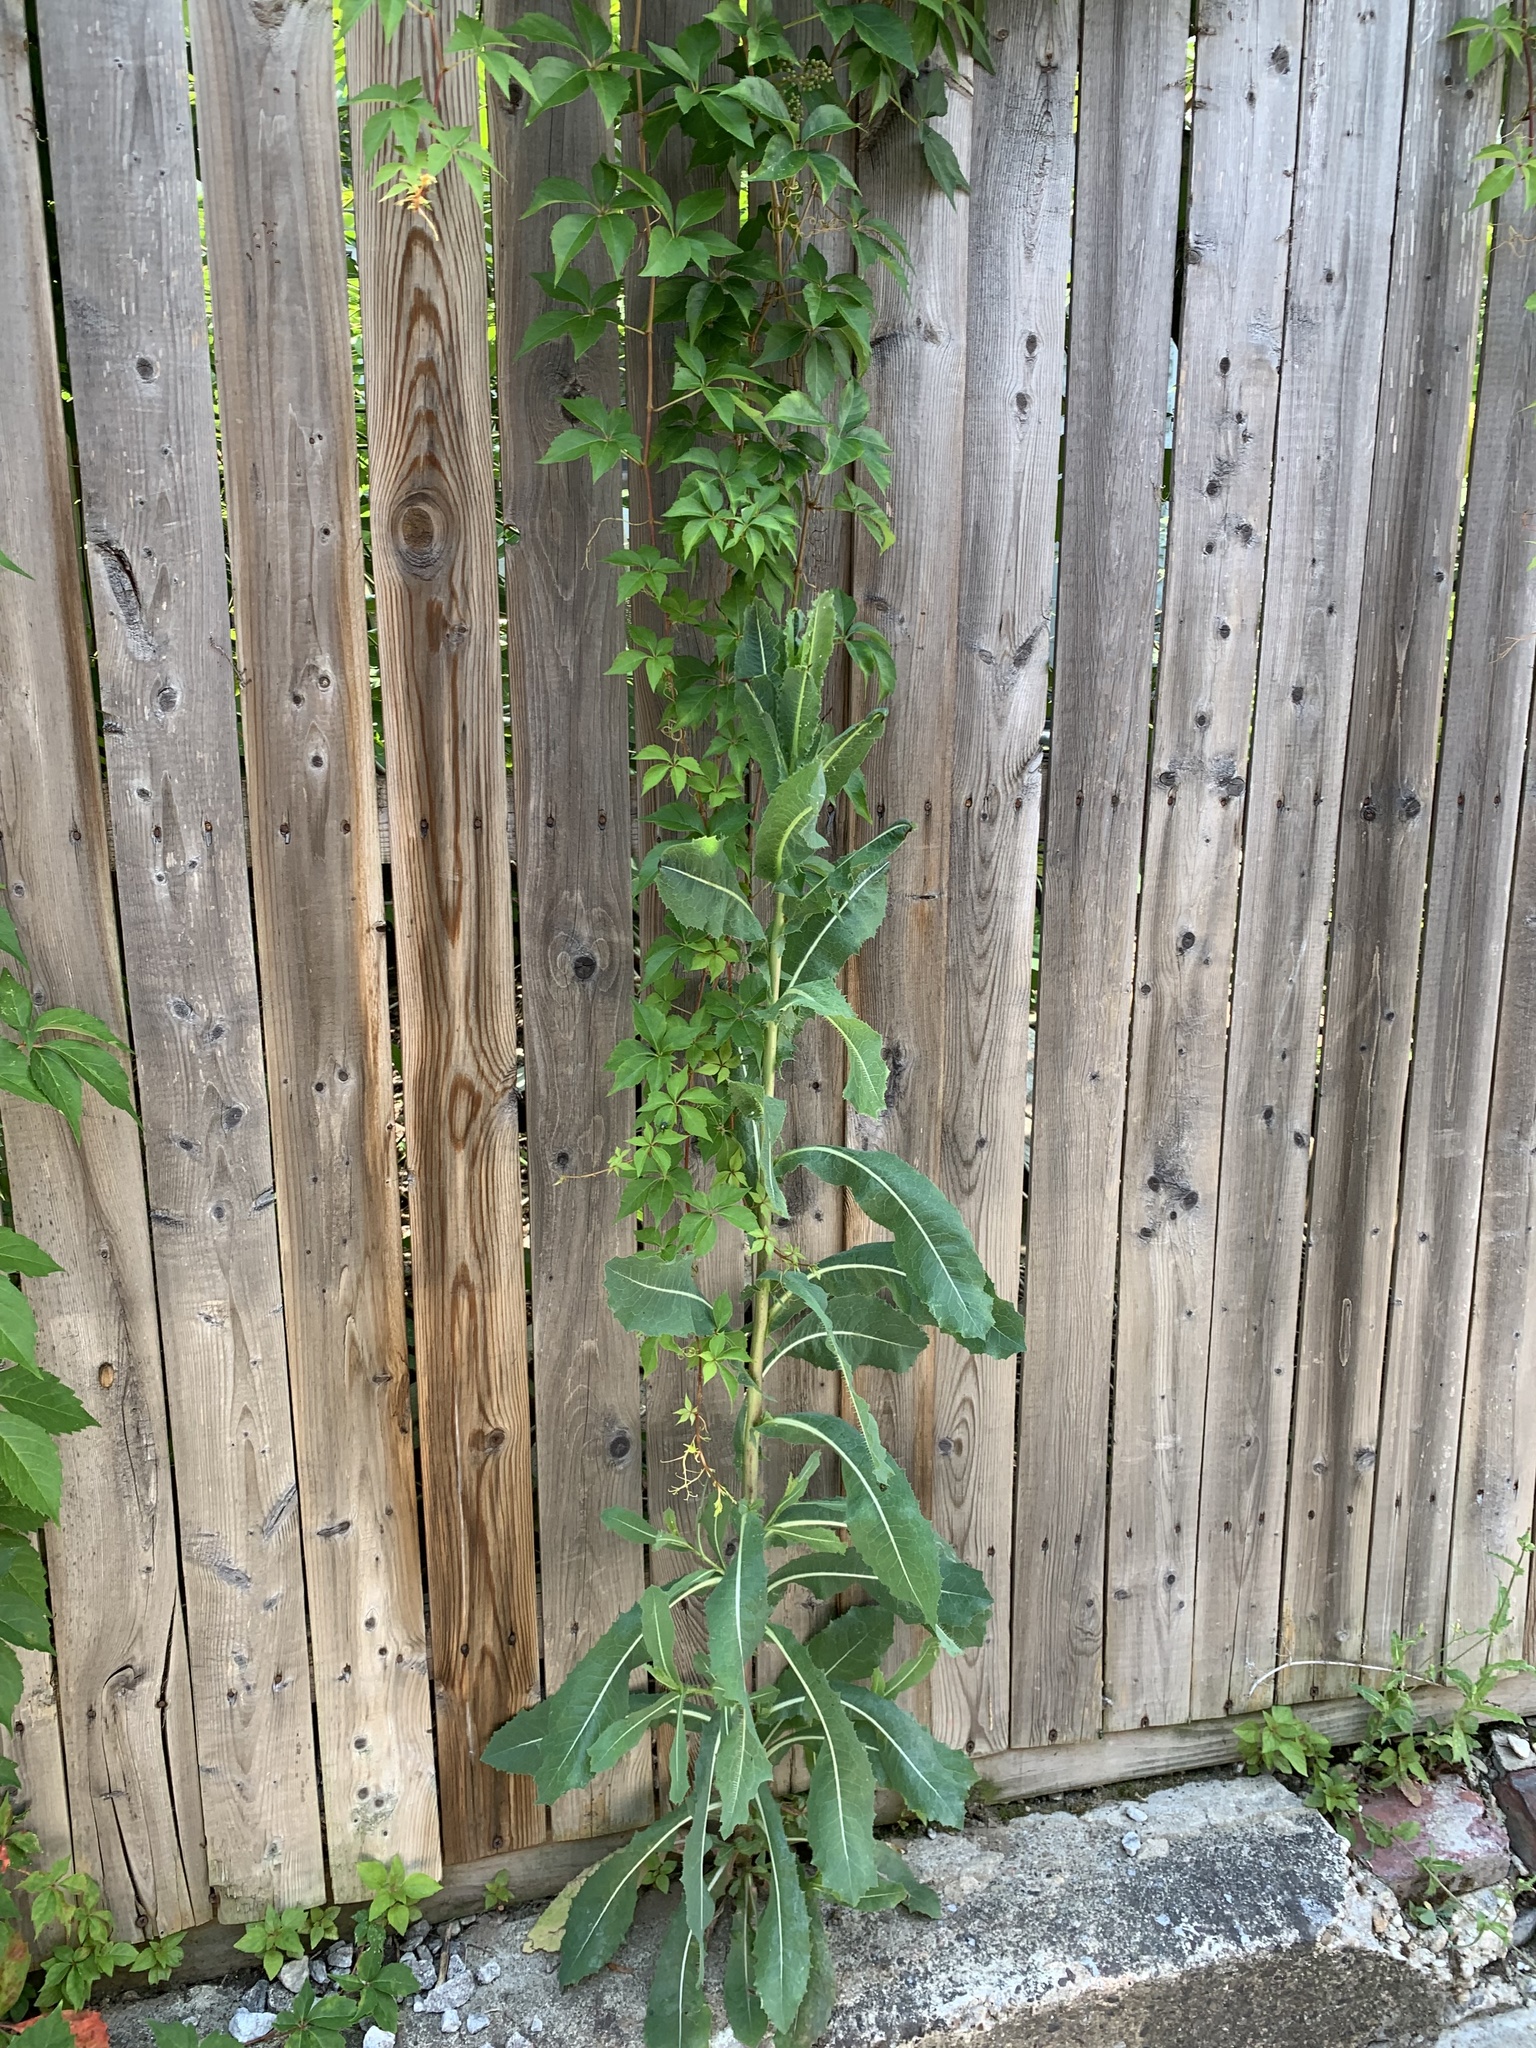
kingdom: Plantae
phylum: Tracheophyta
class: Magnoliopsida
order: Asterales
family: Asteraceae
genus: Lactuca
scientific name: Lactuca serriola
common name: Prickly lettuce
